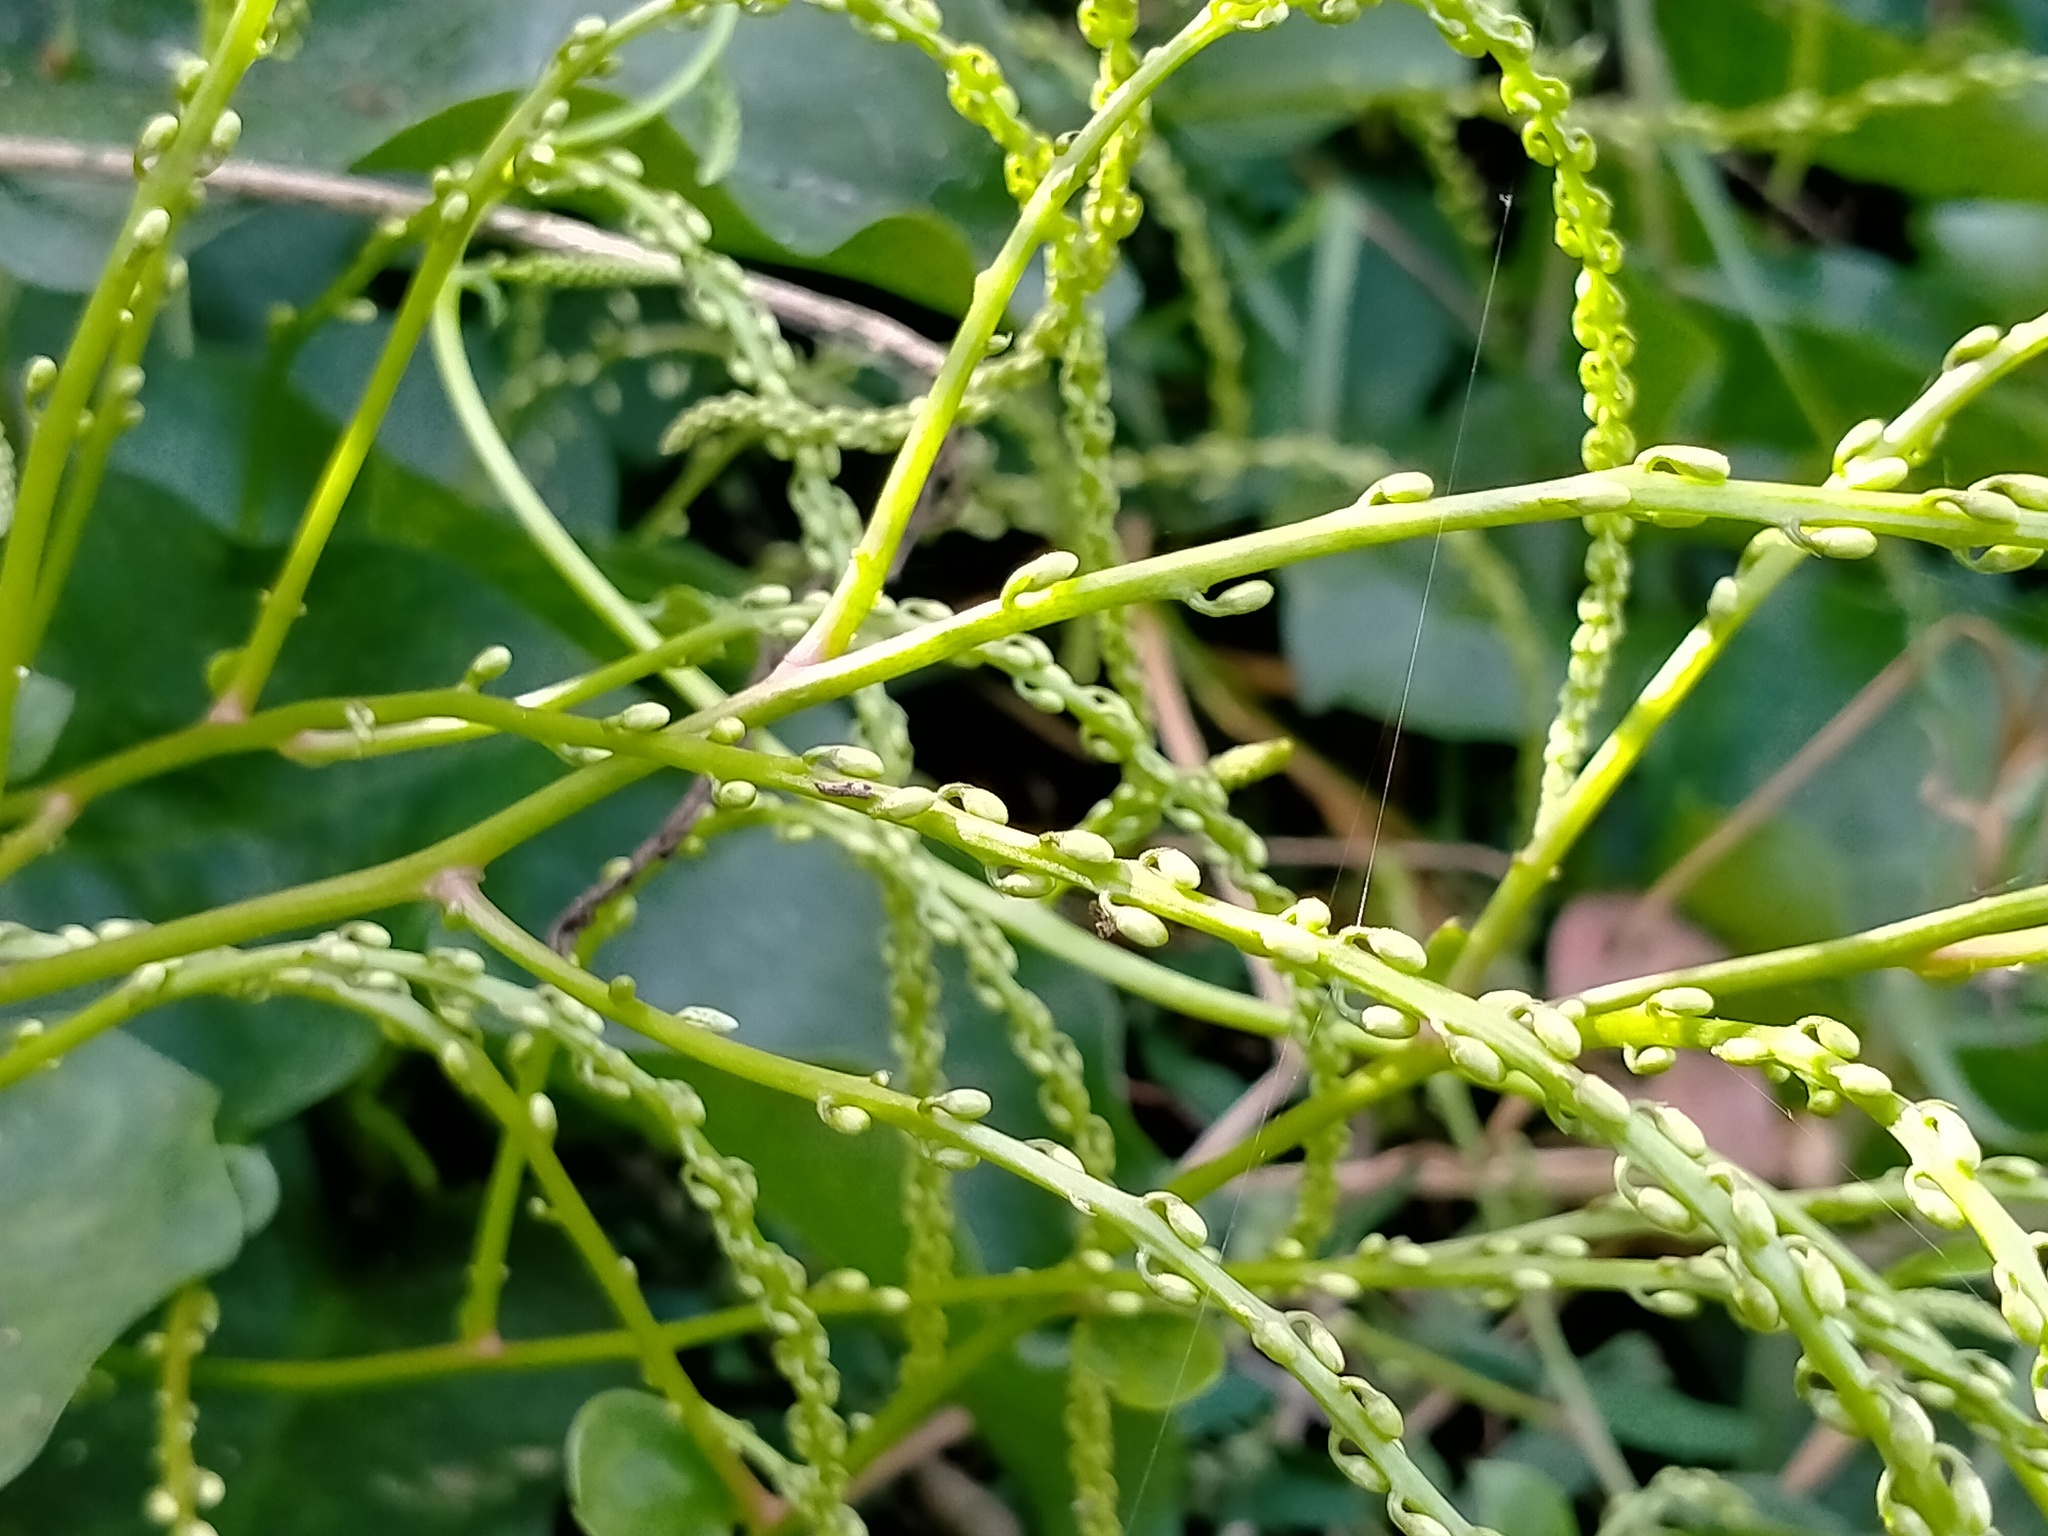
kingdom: Plantae
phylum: Tracheophyta
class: Magnoliopsida
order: Caryophyllales
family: Basellaceae
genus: Anredera
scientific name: Anredera cordifolia
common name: Heartleaf madeiravine
